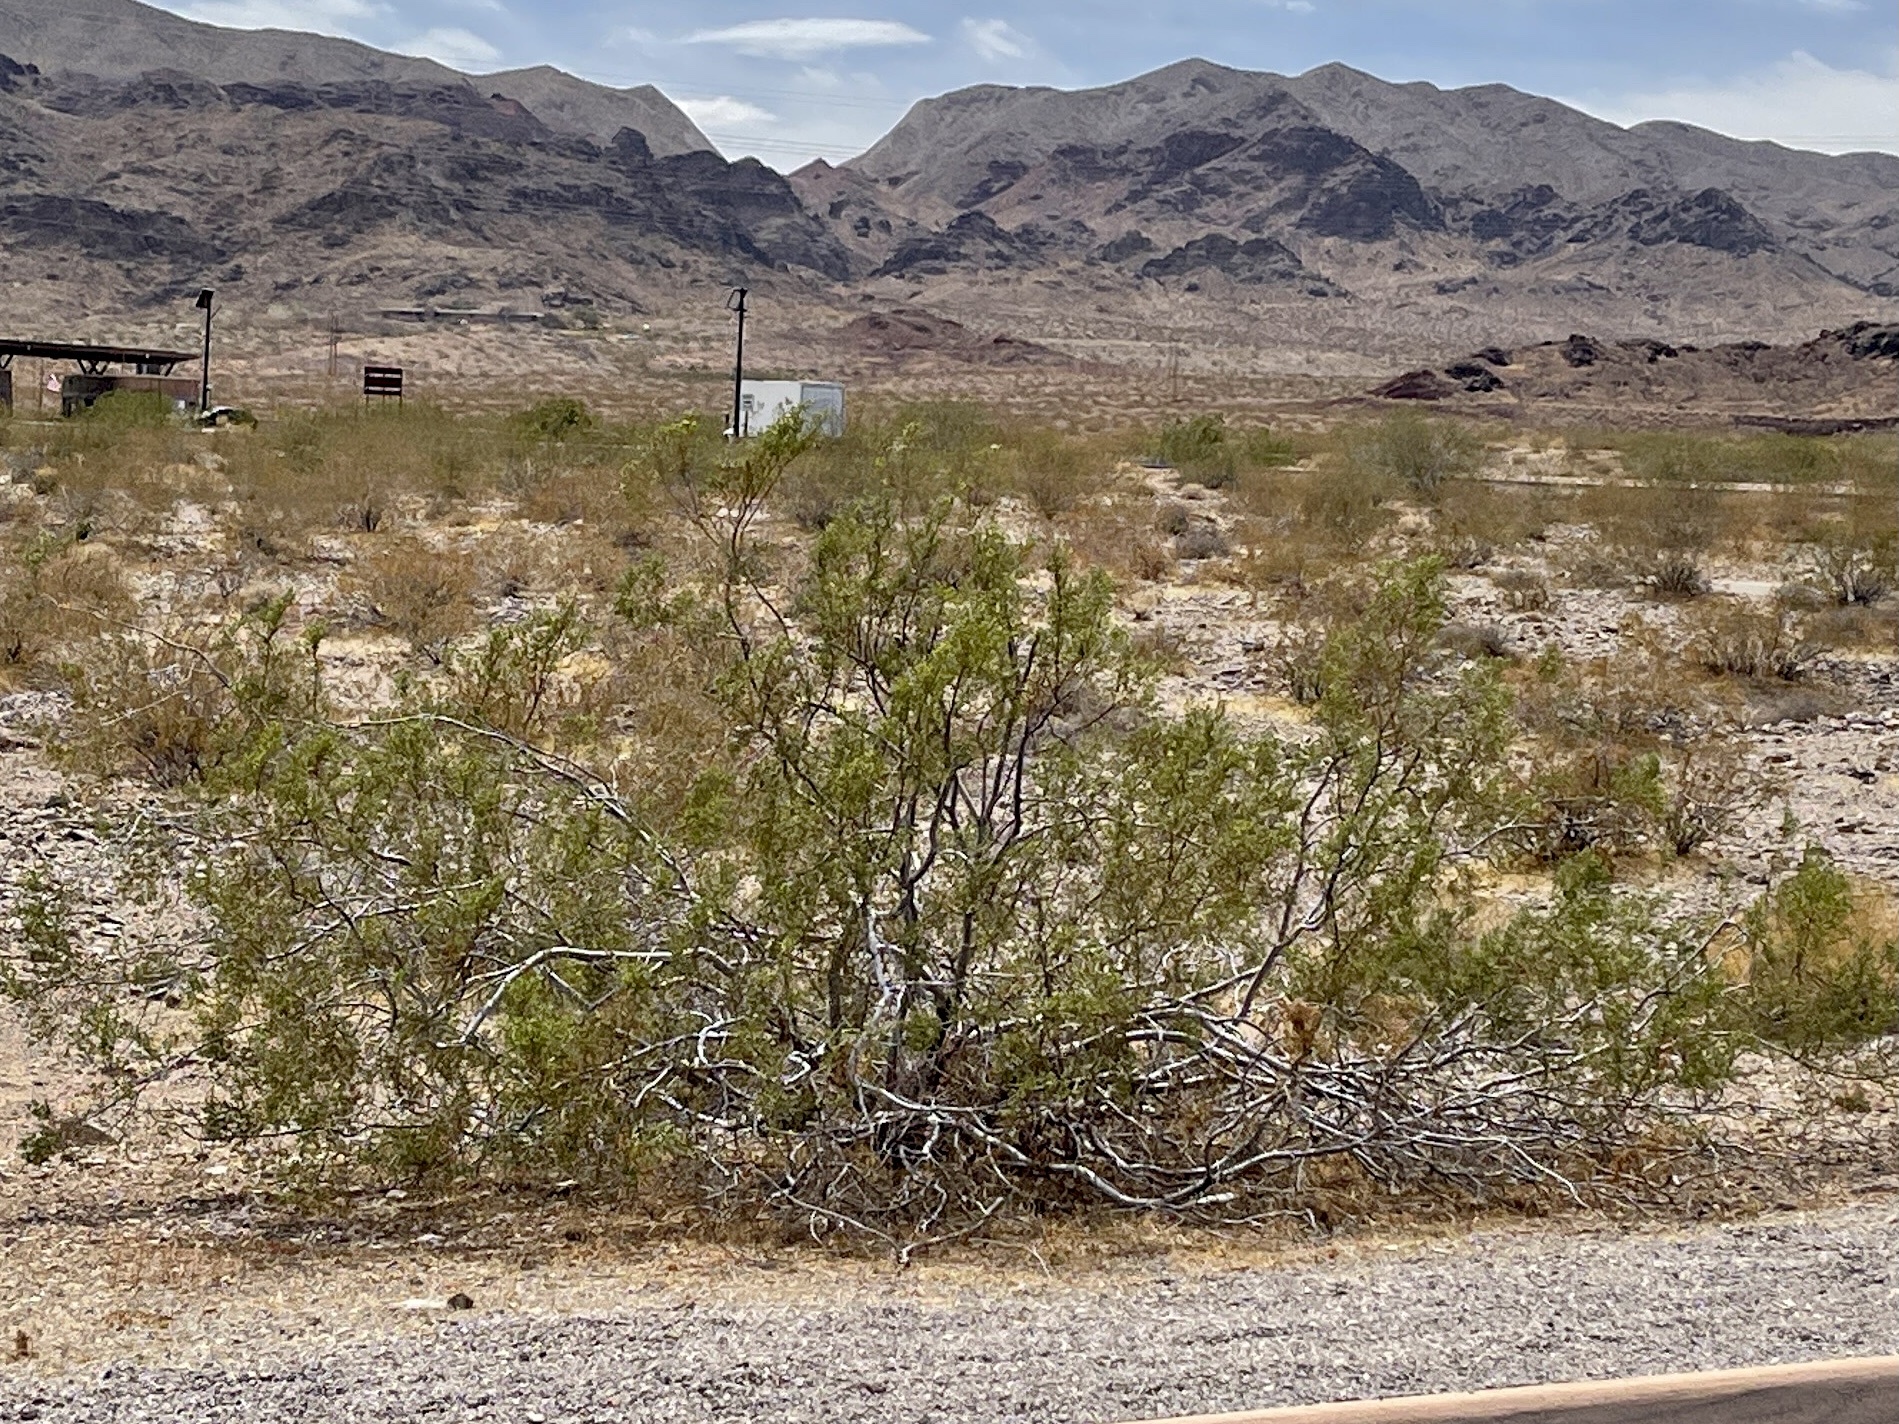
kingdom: Plantae
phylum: Tracheophyta
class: Magnoliopsida
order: Zygophyllales
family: Zygophyllaceae
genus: Larrea
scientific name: Larrea tridentata
